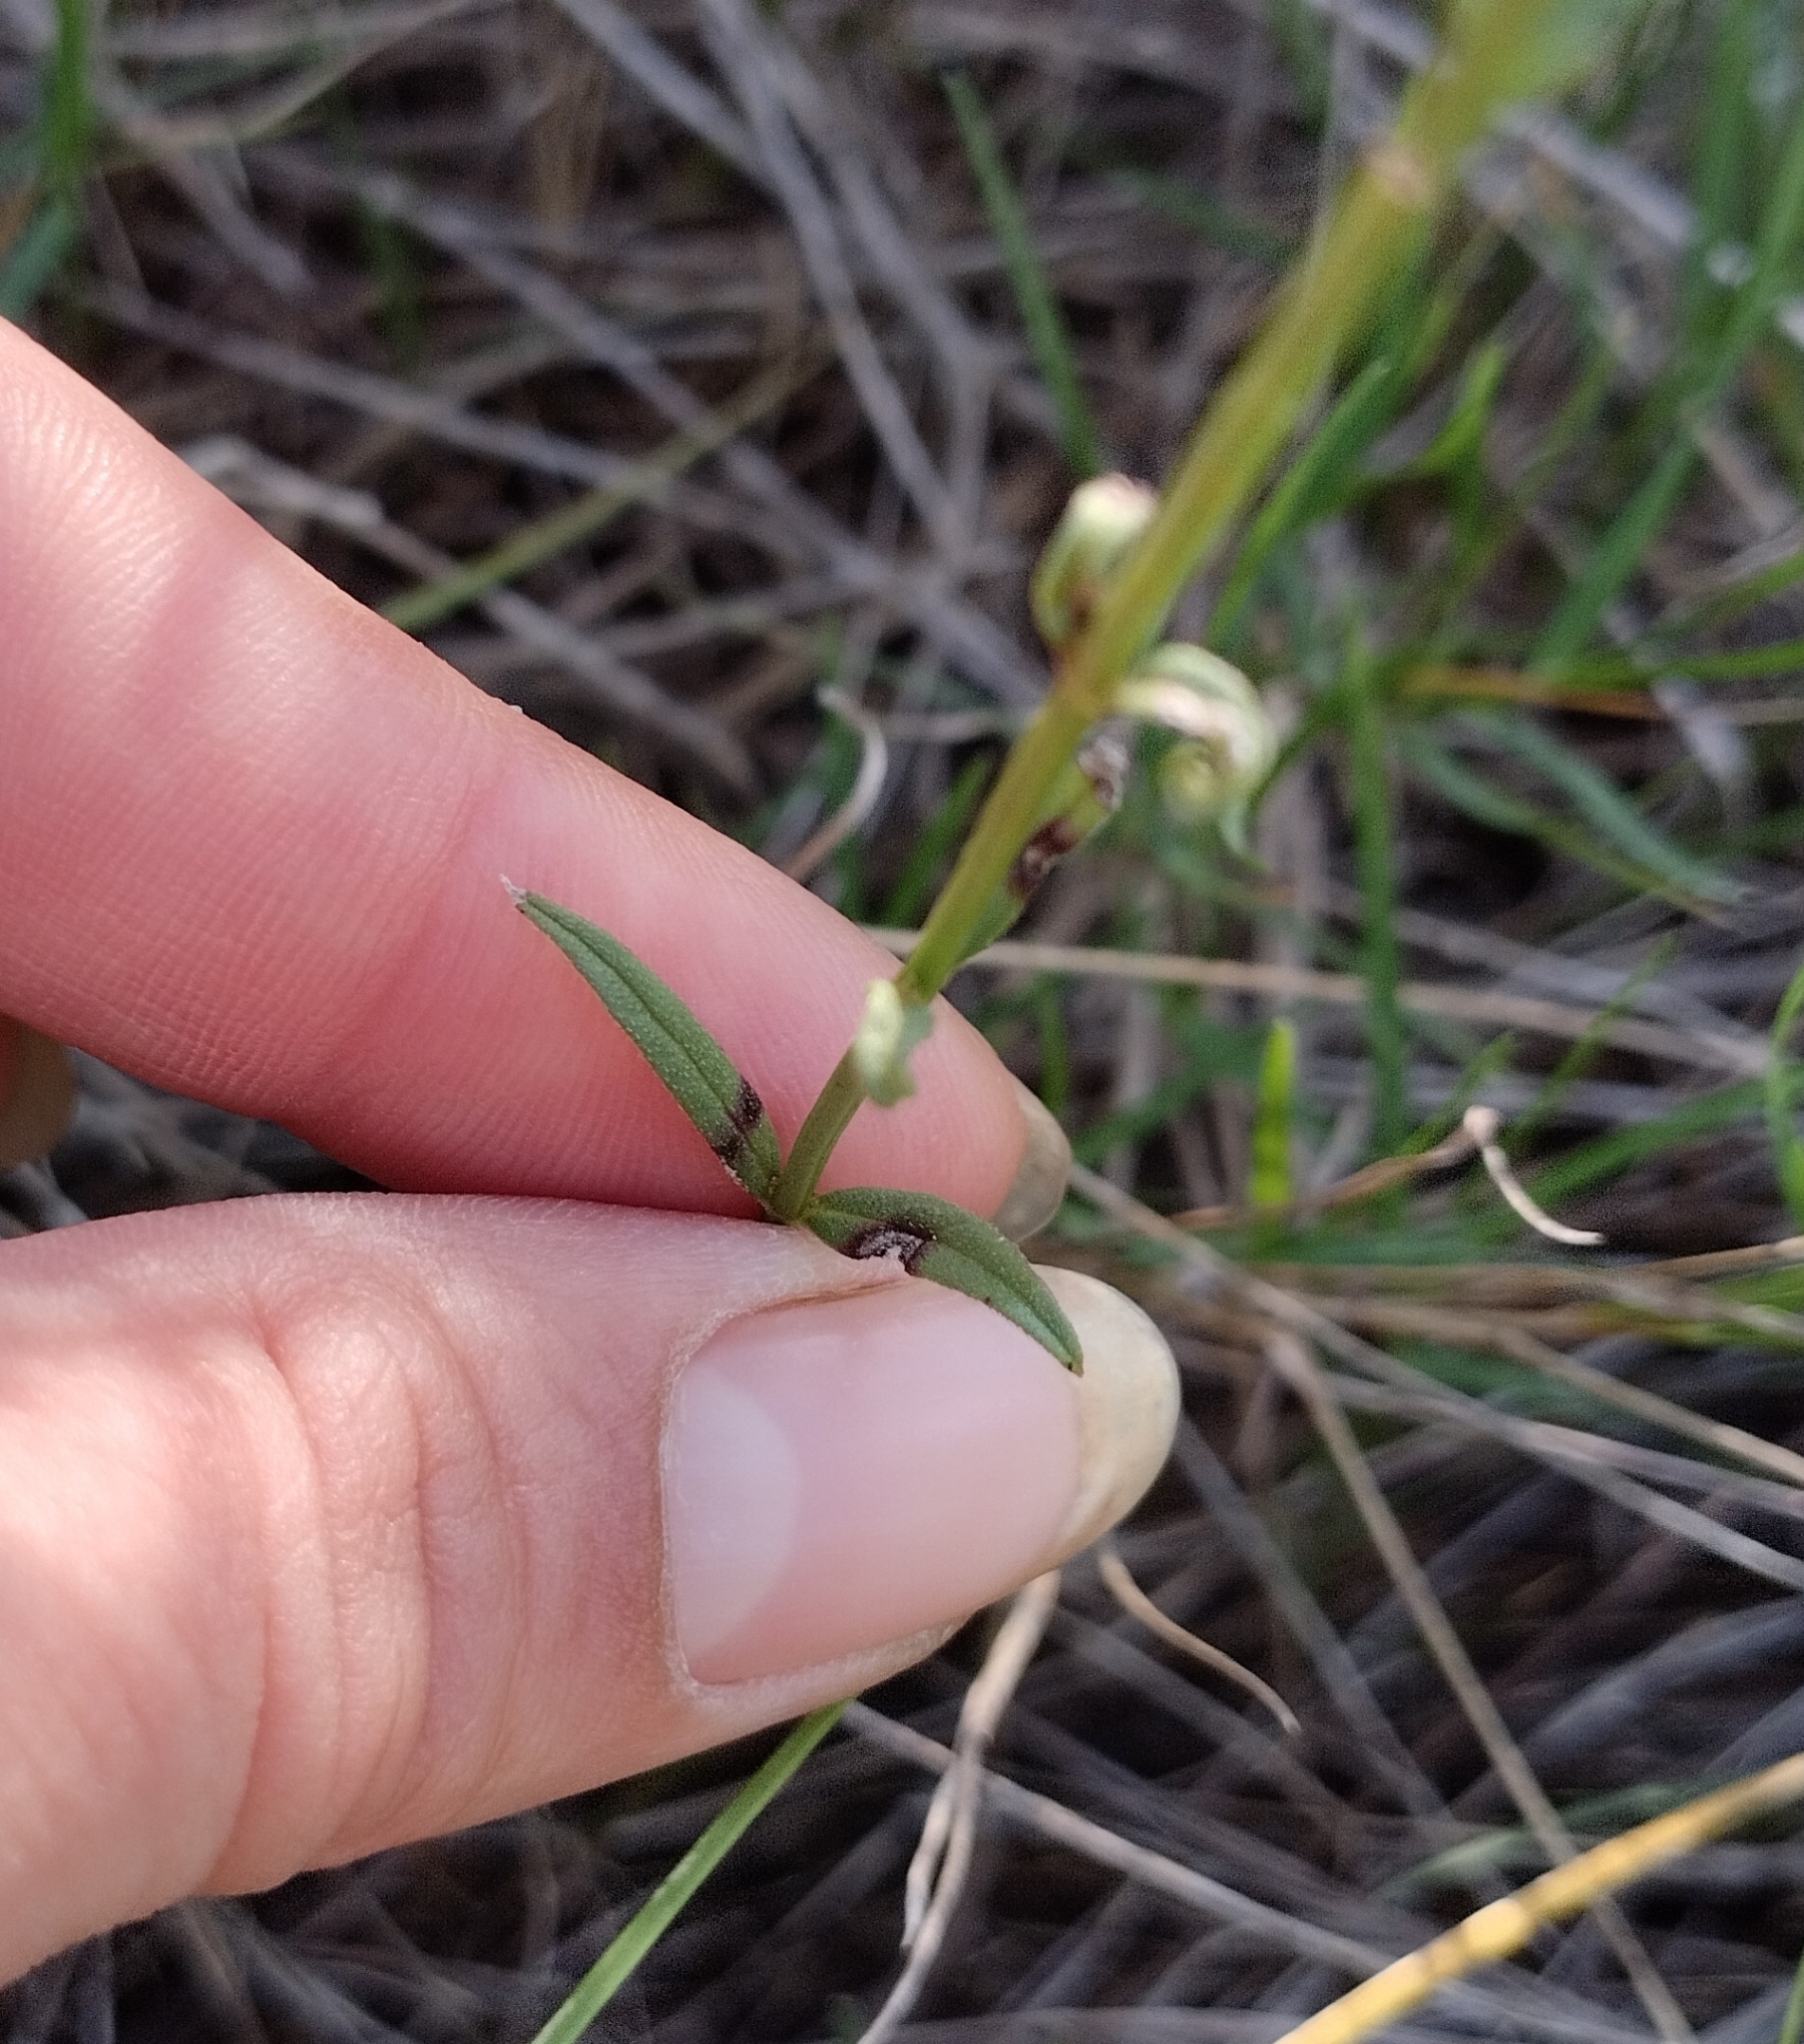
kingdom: Plantae
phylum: Tracheophyta
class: Magnoliopsida
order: Lamiales
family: Verbenaceae
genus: Verbena
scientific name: Verbena montevidensis
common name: Uruguayan vervain
